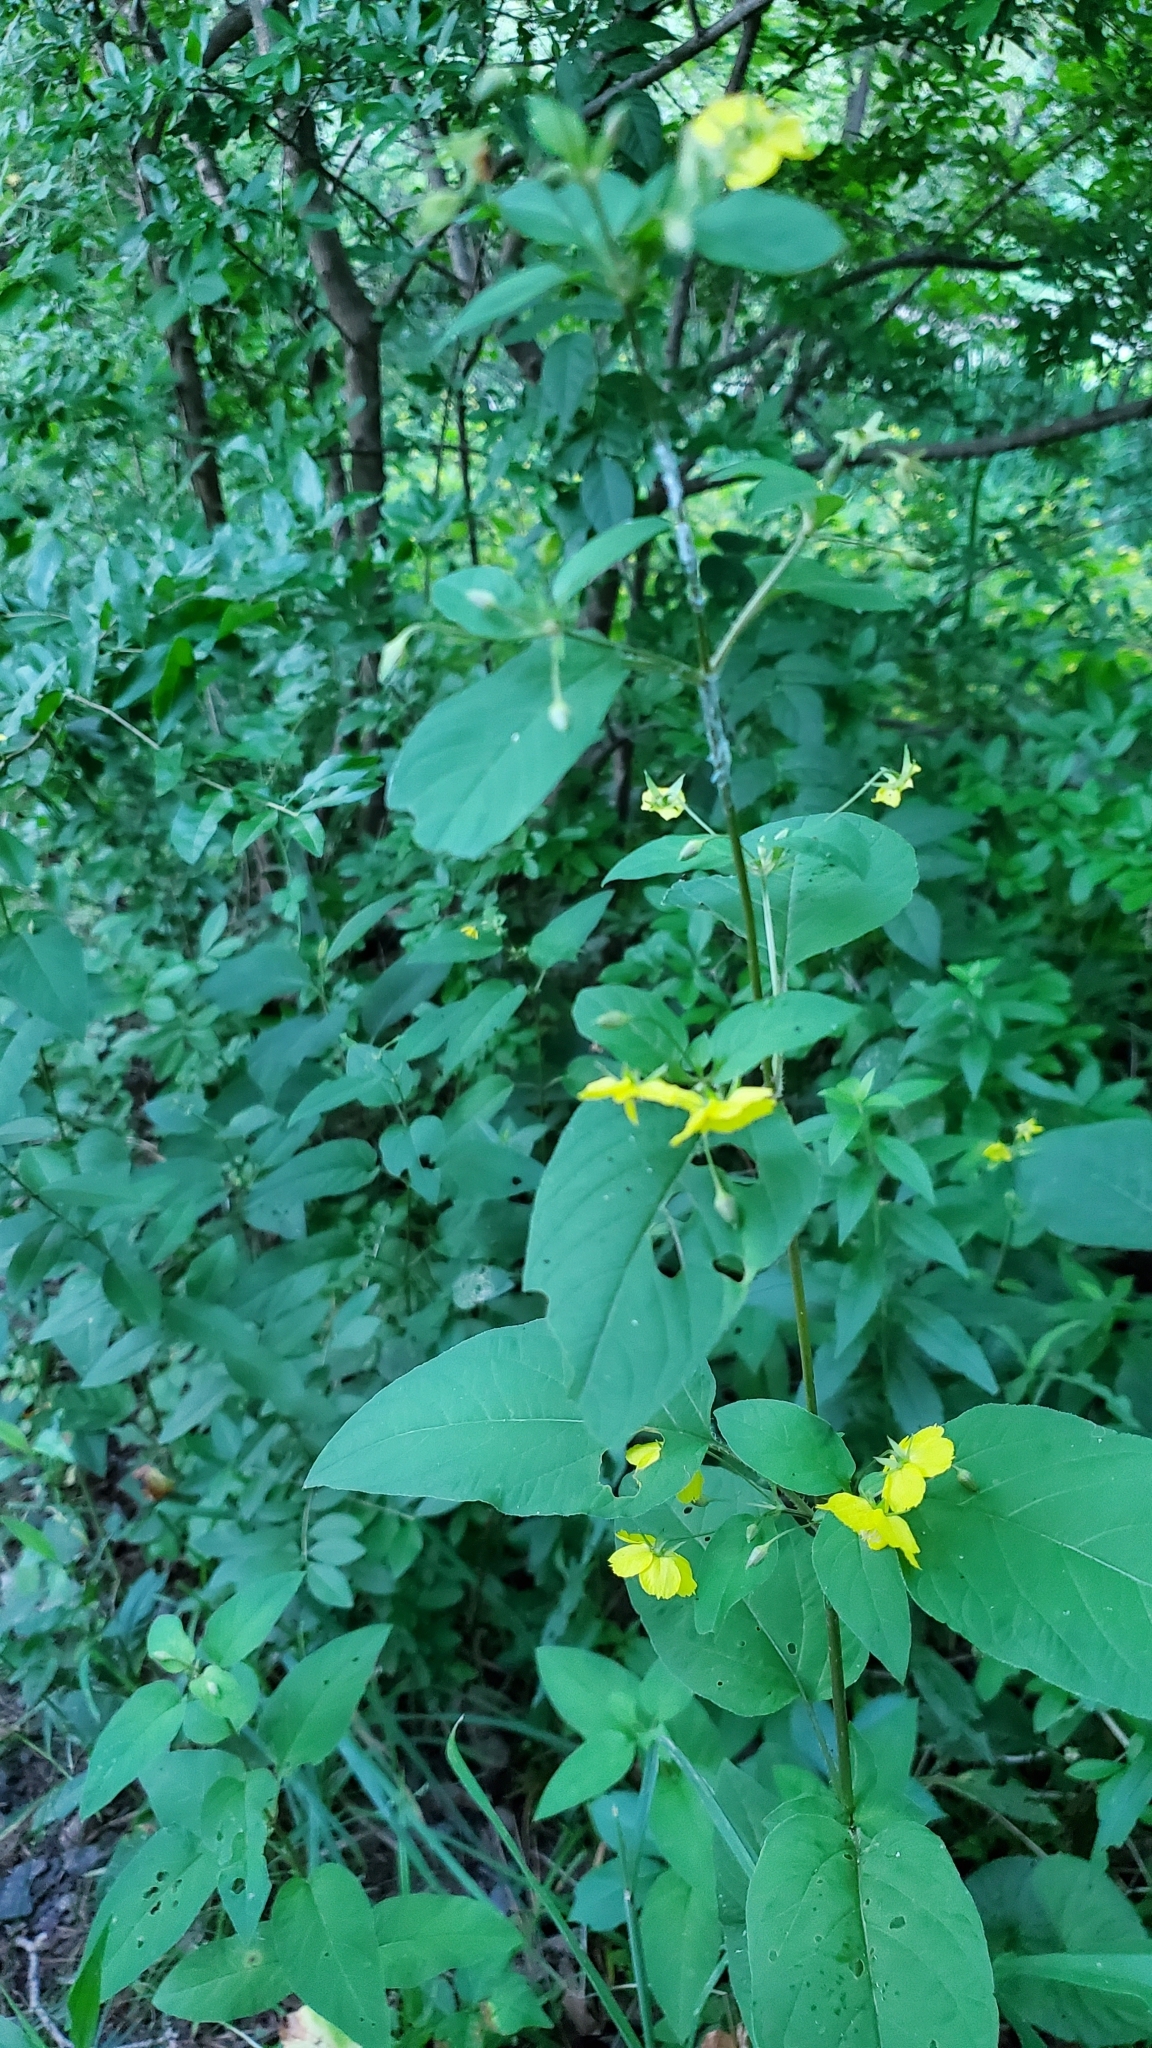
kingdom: Plantae
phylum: Tracheophyta
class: Magnoliopsida
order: Ericales
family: Primulaceae
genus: Lysimachia
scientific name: Lysimachia ciliata
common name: Fringed loosestrife
